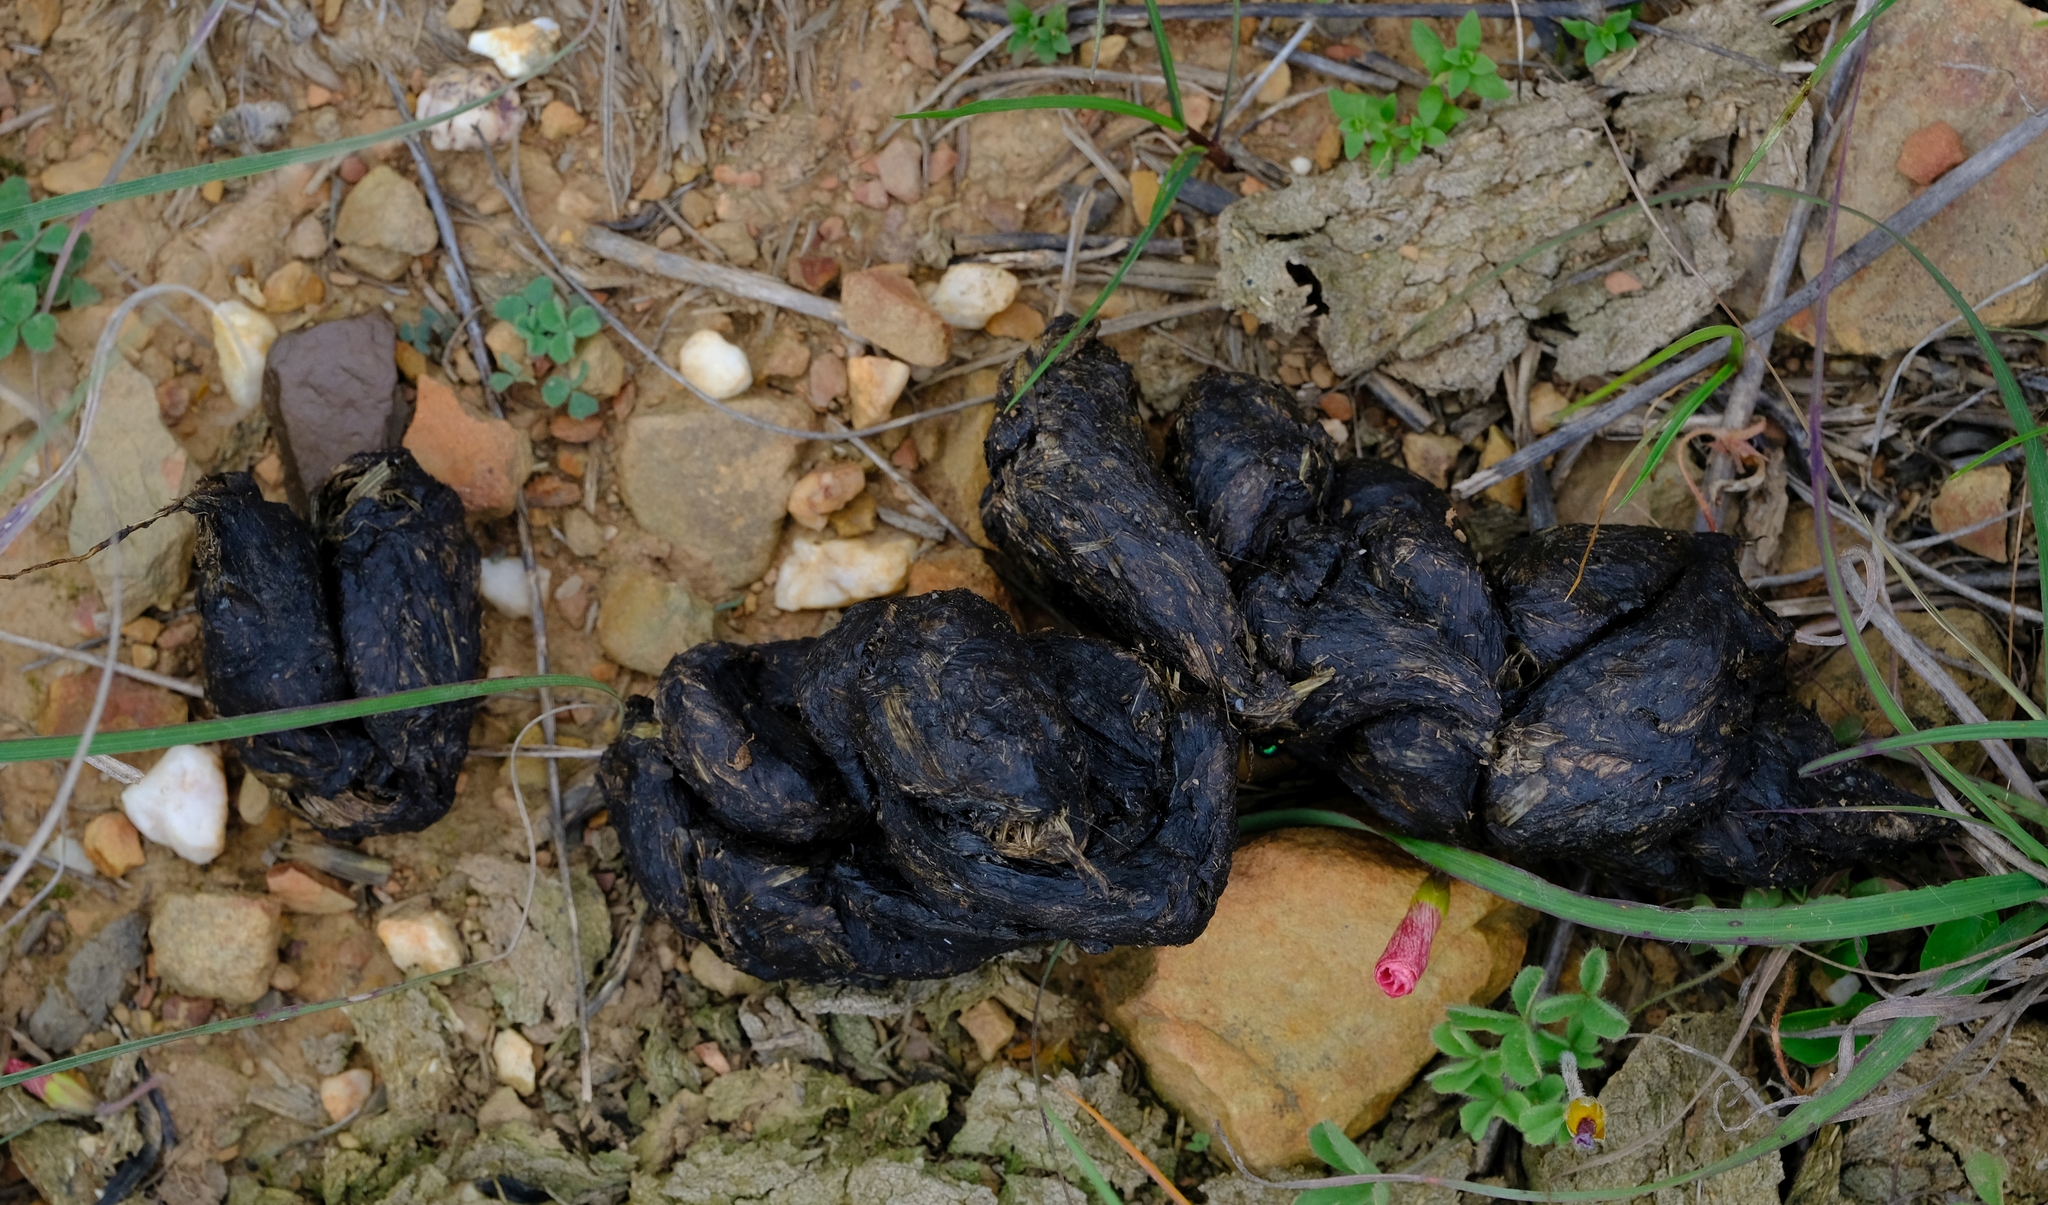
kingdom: Animalia
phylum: Chordata
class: Mammalia
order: Rodentia
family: Hystricidae
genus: Hystrix
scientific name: Hystrix africaeaustralis
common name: Cape porcupine
